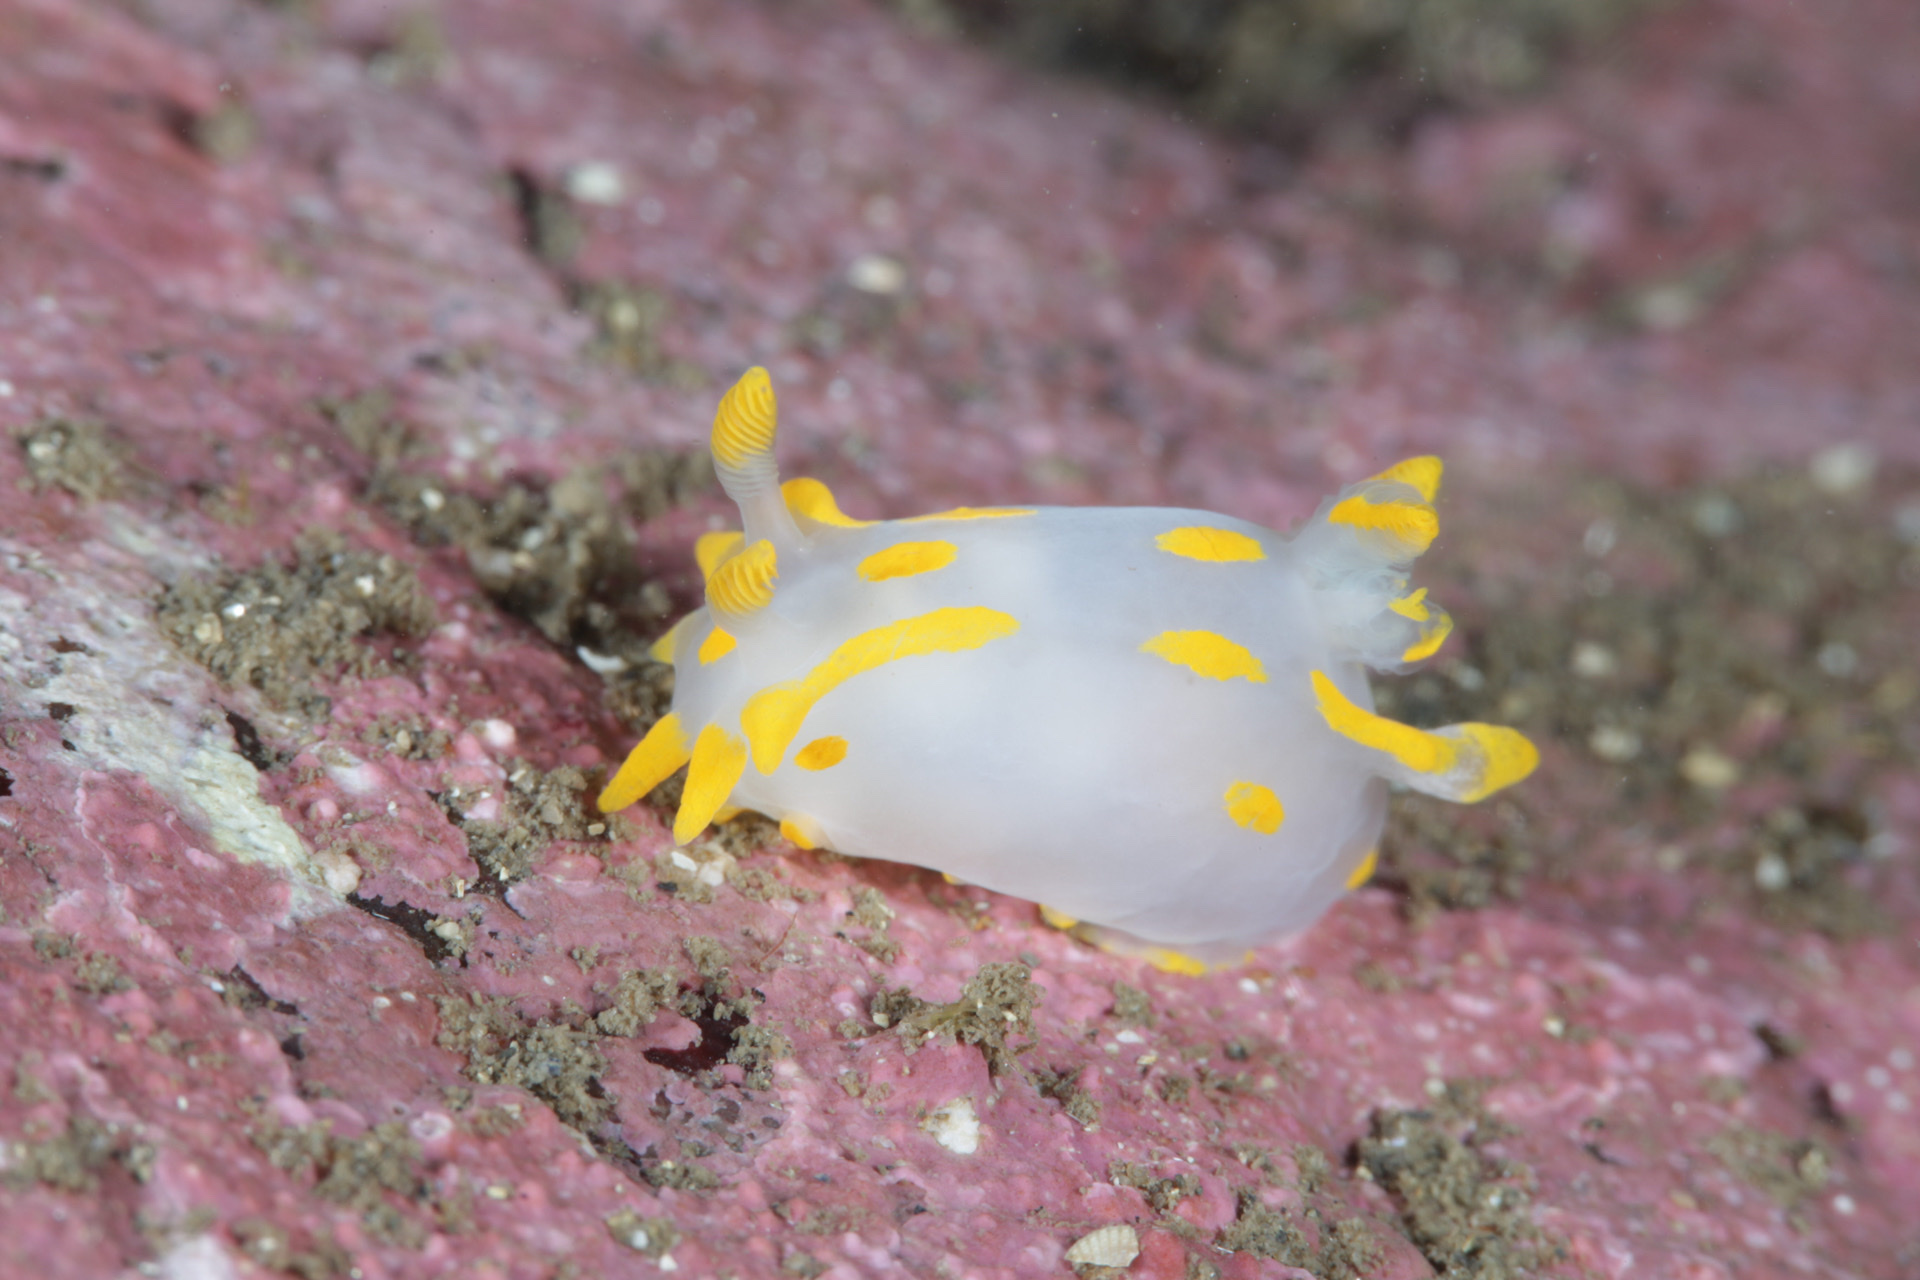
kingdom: Animalia
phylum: Mollusca
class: Gastropoda
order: Nudibranchia
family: Polyceridae
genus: Polycera
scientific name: Polycera quadrilineata
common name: Four-striped polycera
